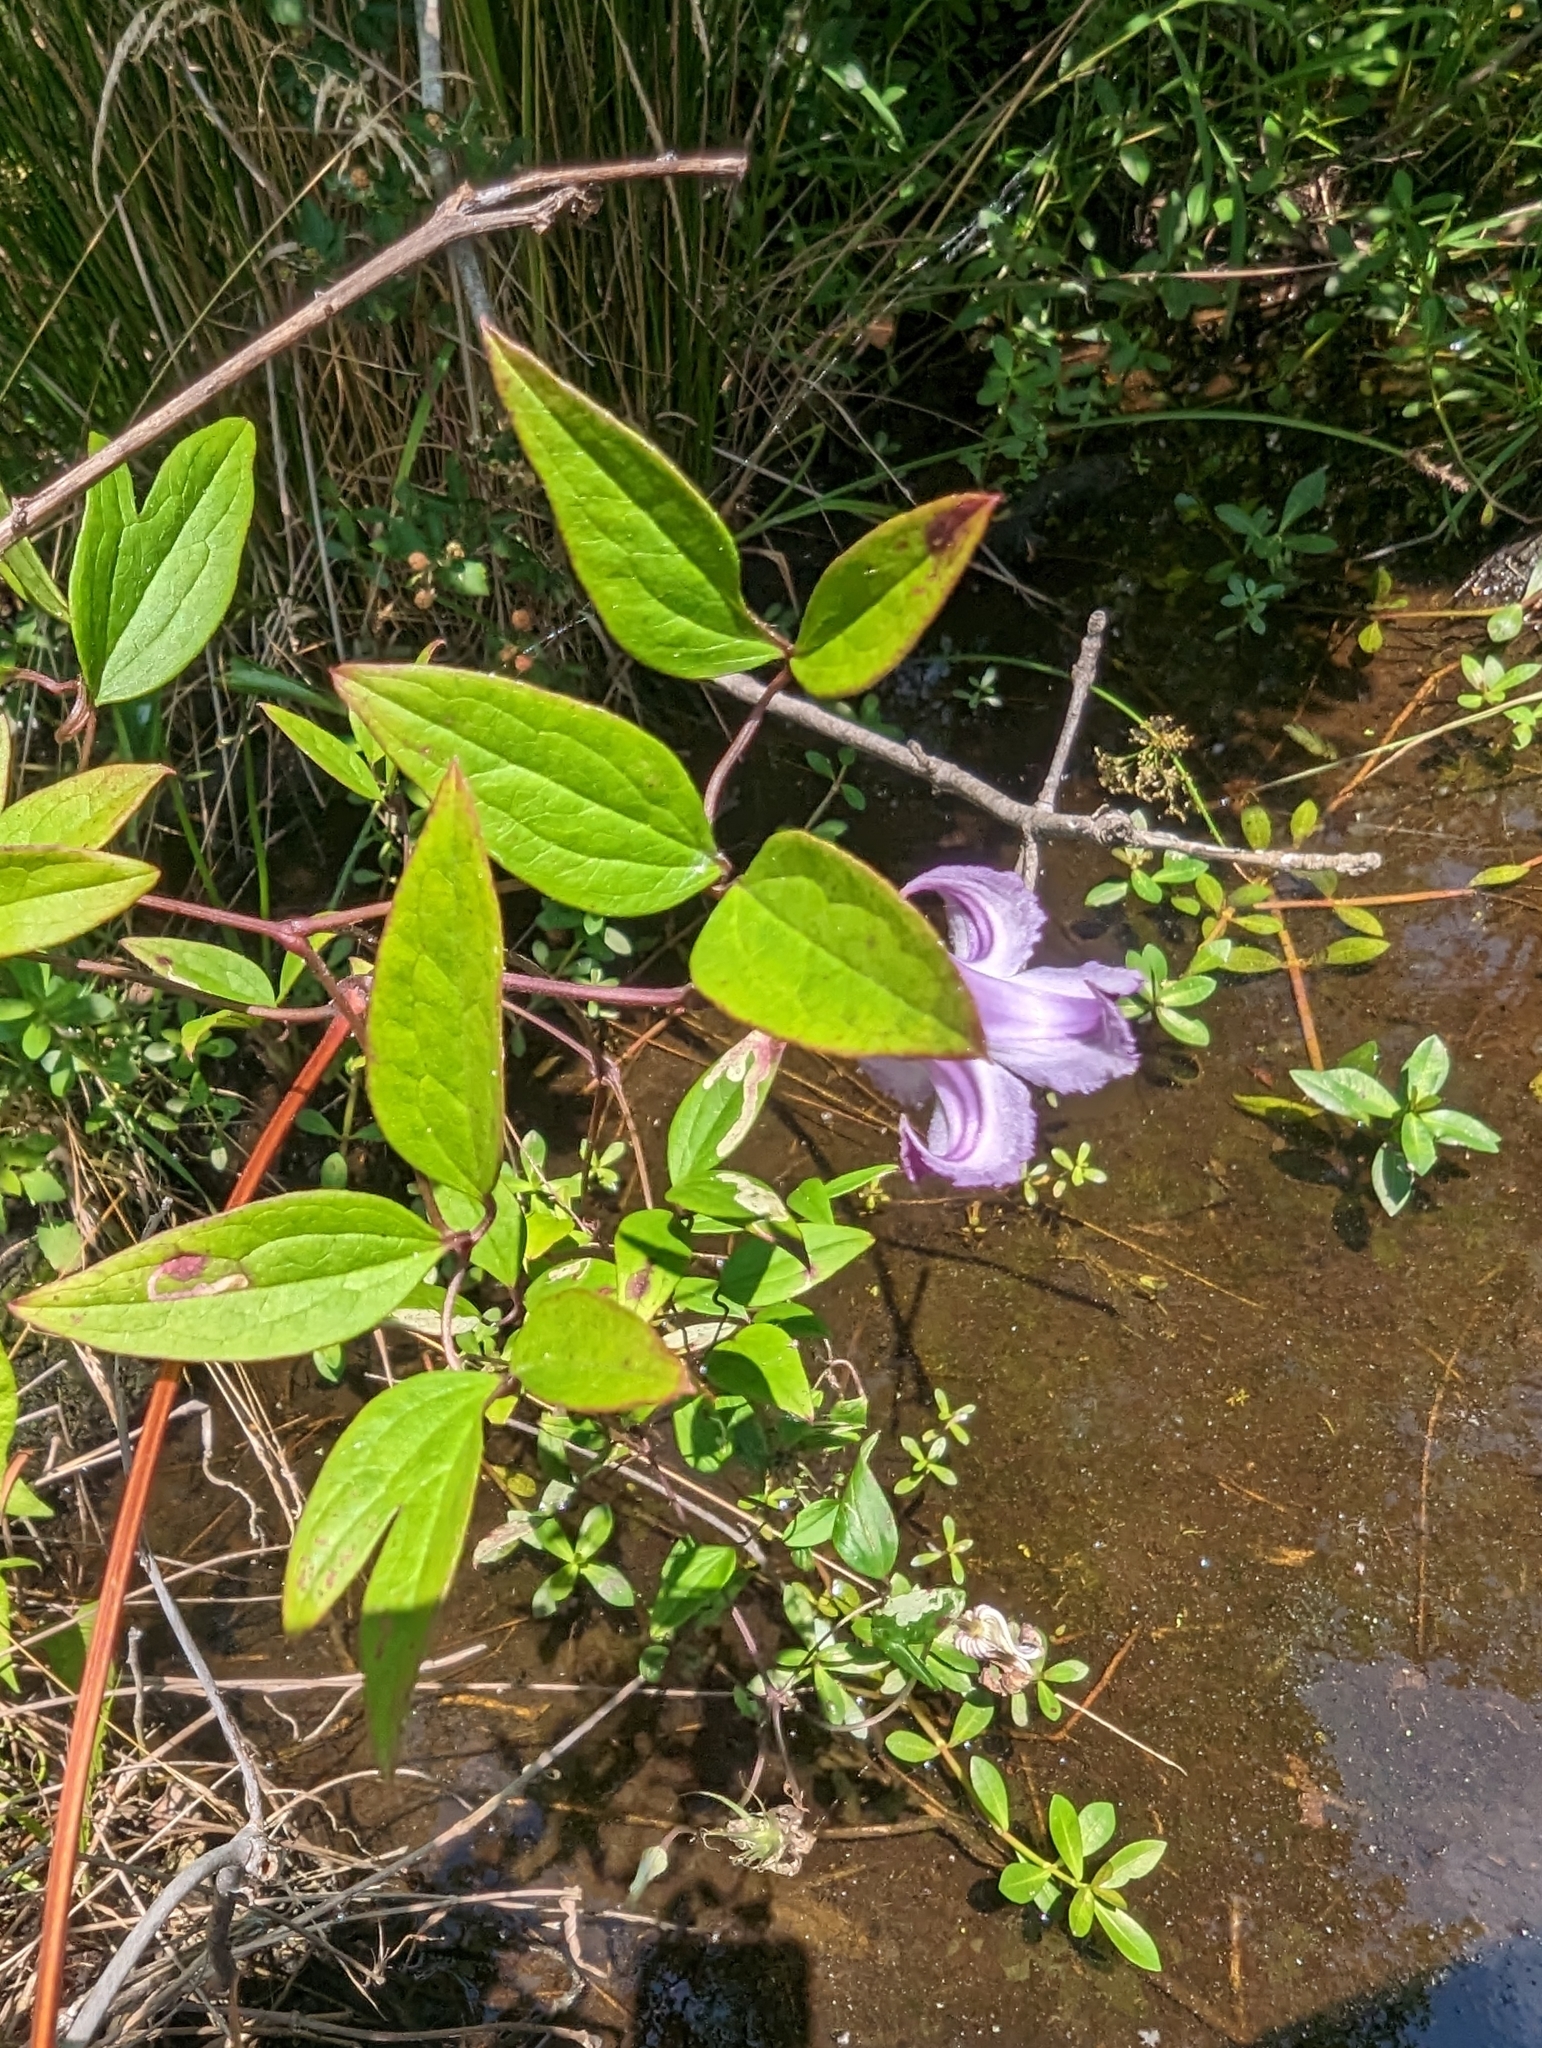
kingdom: Plantae
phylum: Tracheophyta
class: Magnoliopsida
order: Ranunculales
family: Ranunculaceae
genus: Clematis
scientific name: Clematis crispa
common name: Curly clematis
